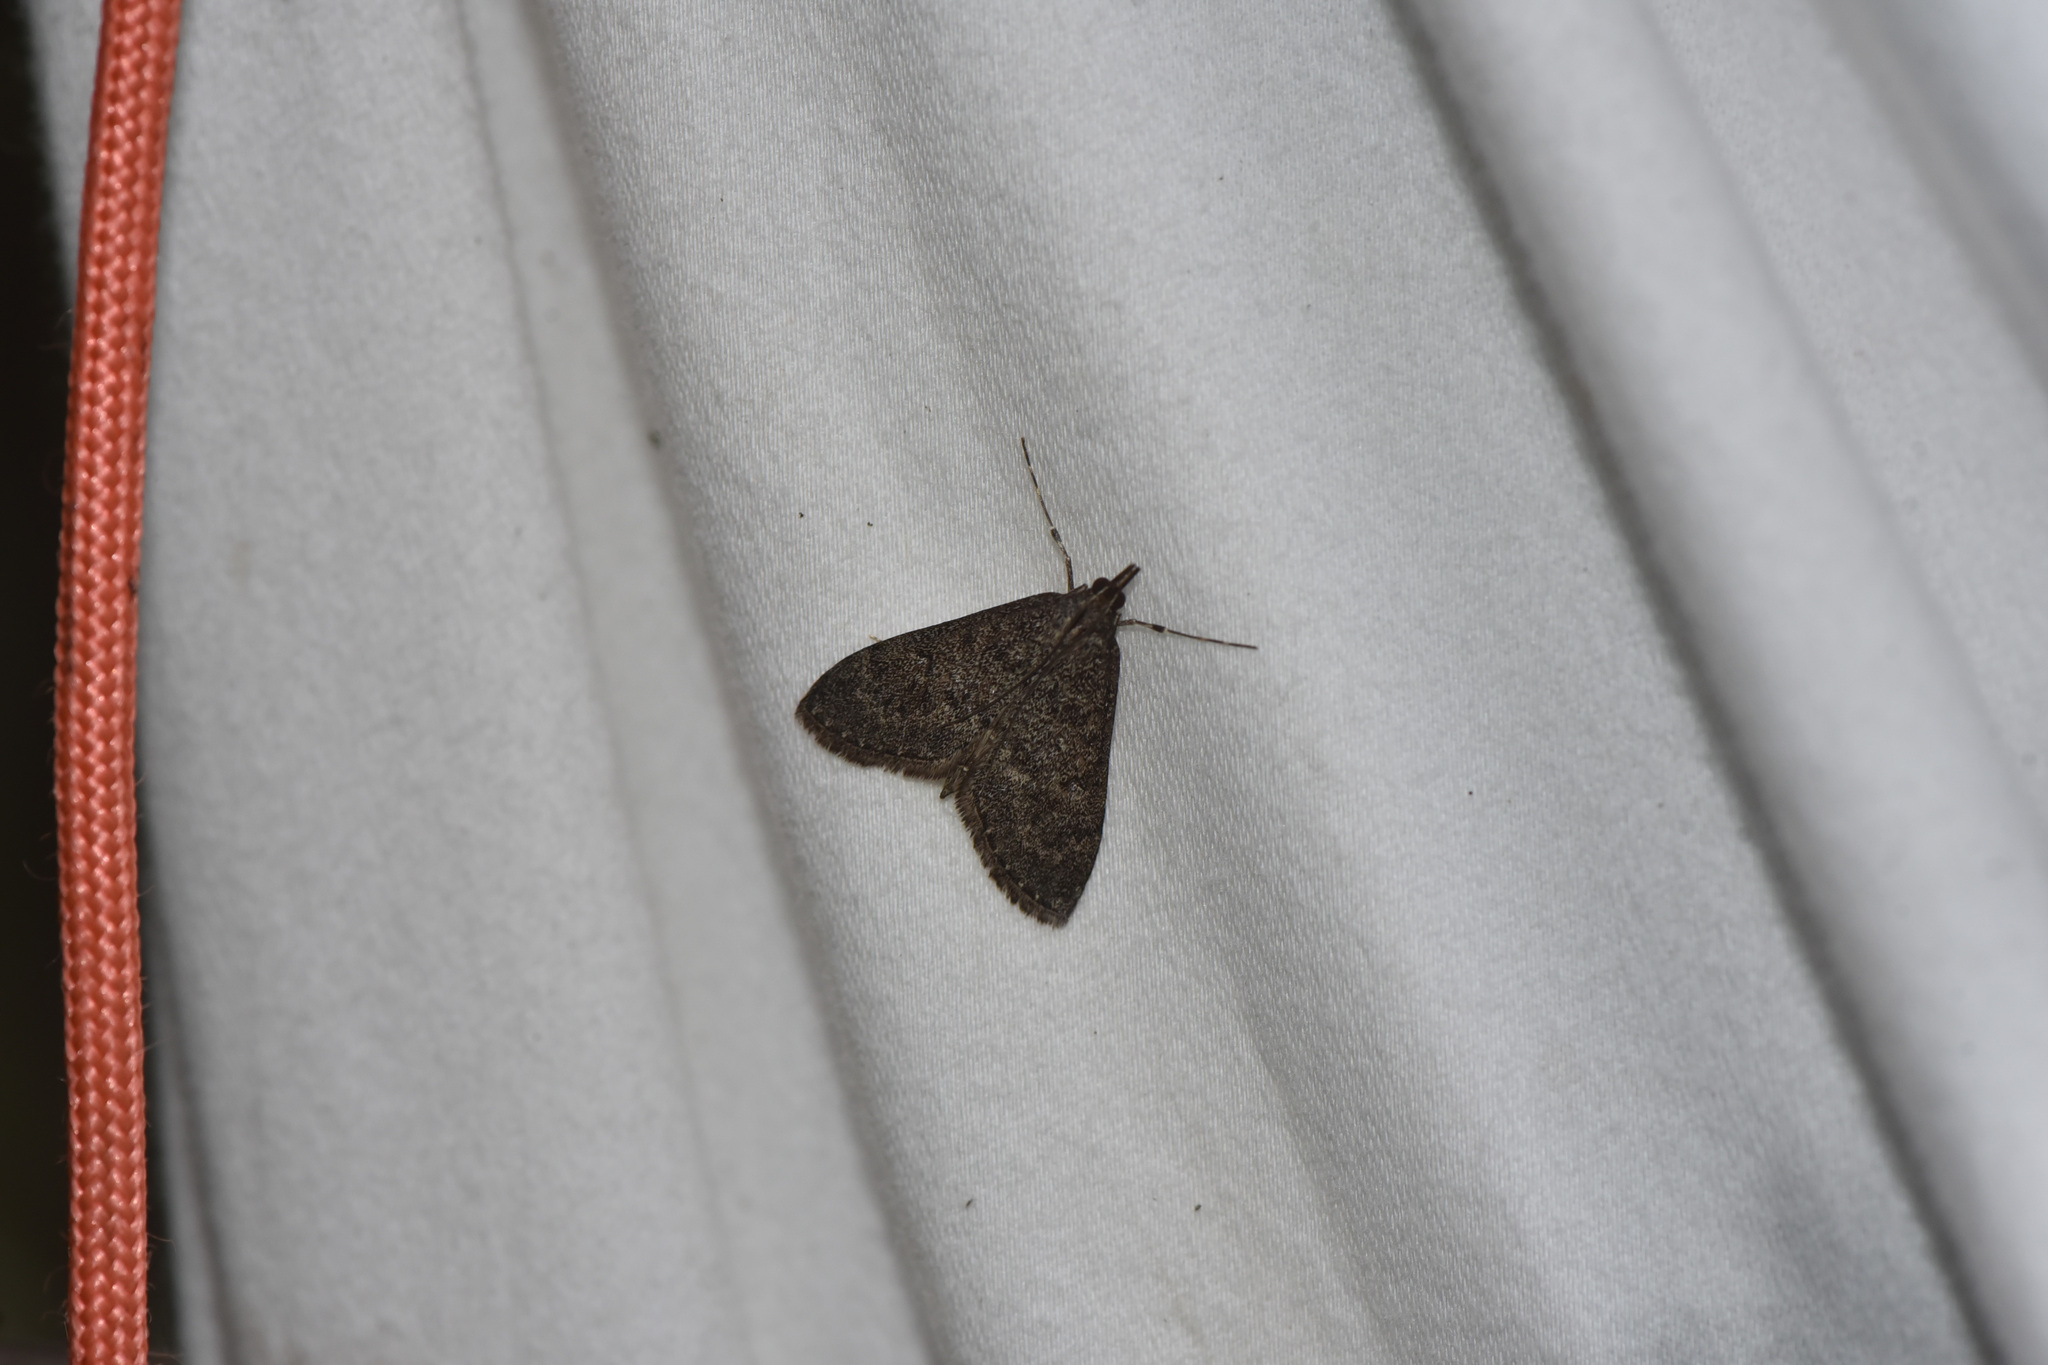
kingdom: Animalia
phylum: Arthropoda
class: Insecta
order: Lepidoptera
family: Crambidae
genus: Saucrobotys
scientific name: Saucrobotys fumoferalis
